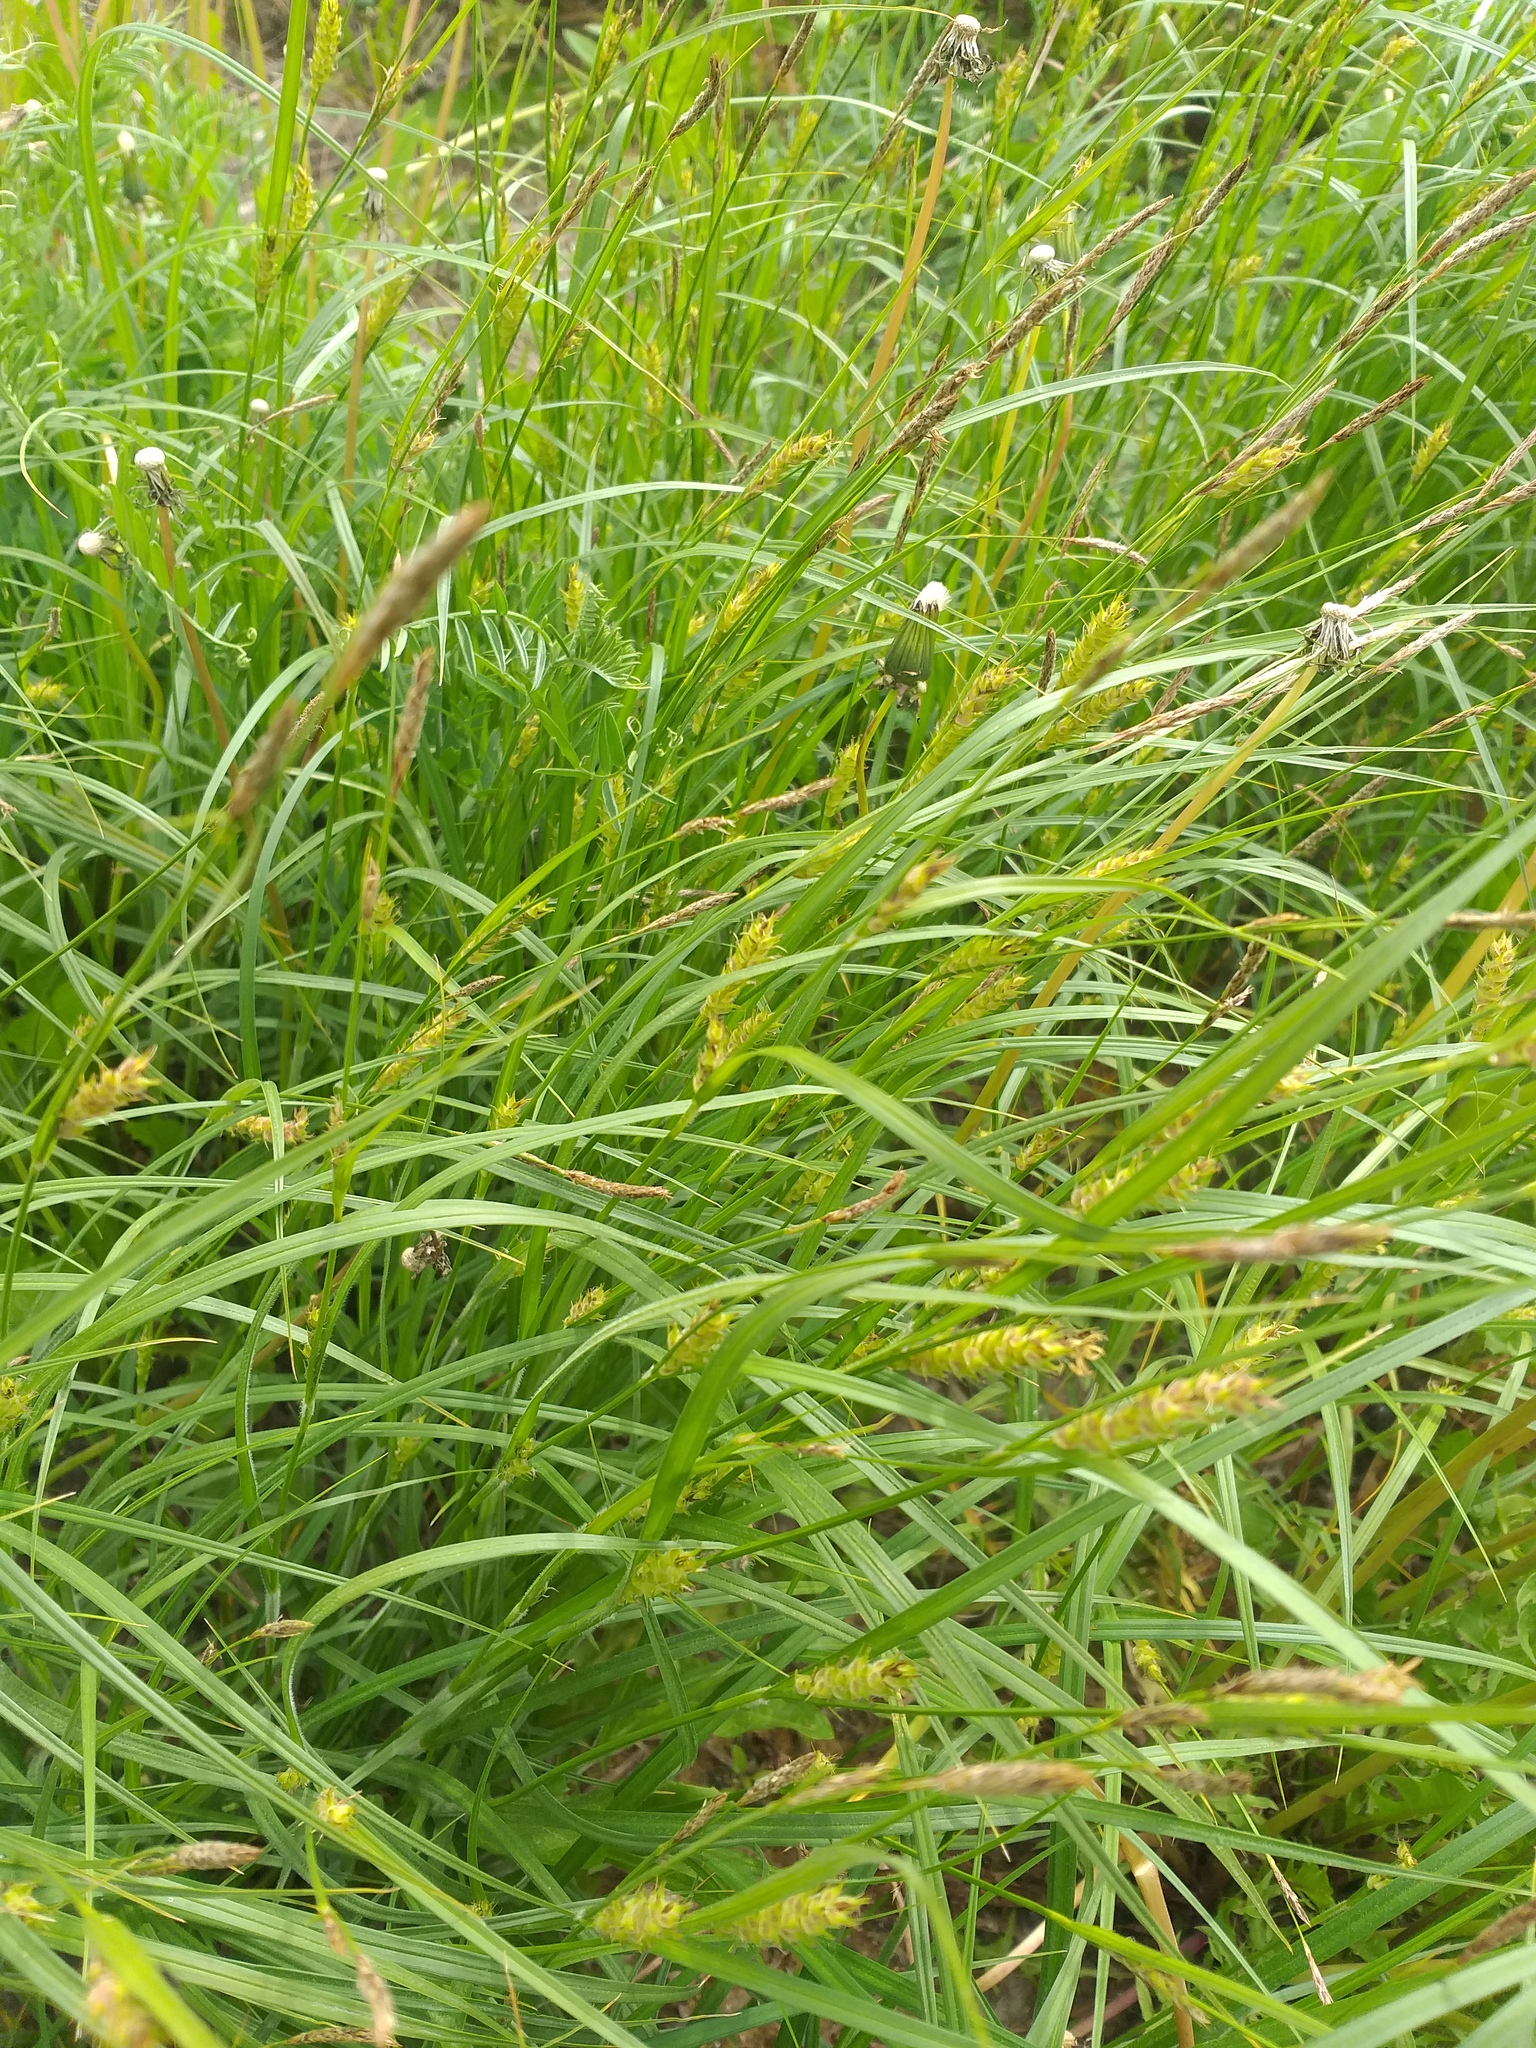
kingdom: Plantae
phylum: Tracheophyta
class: Liliopsida
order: Poales
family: Cyperaceae
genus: Carex
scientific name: Carex hirta
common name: Hairy sedge
